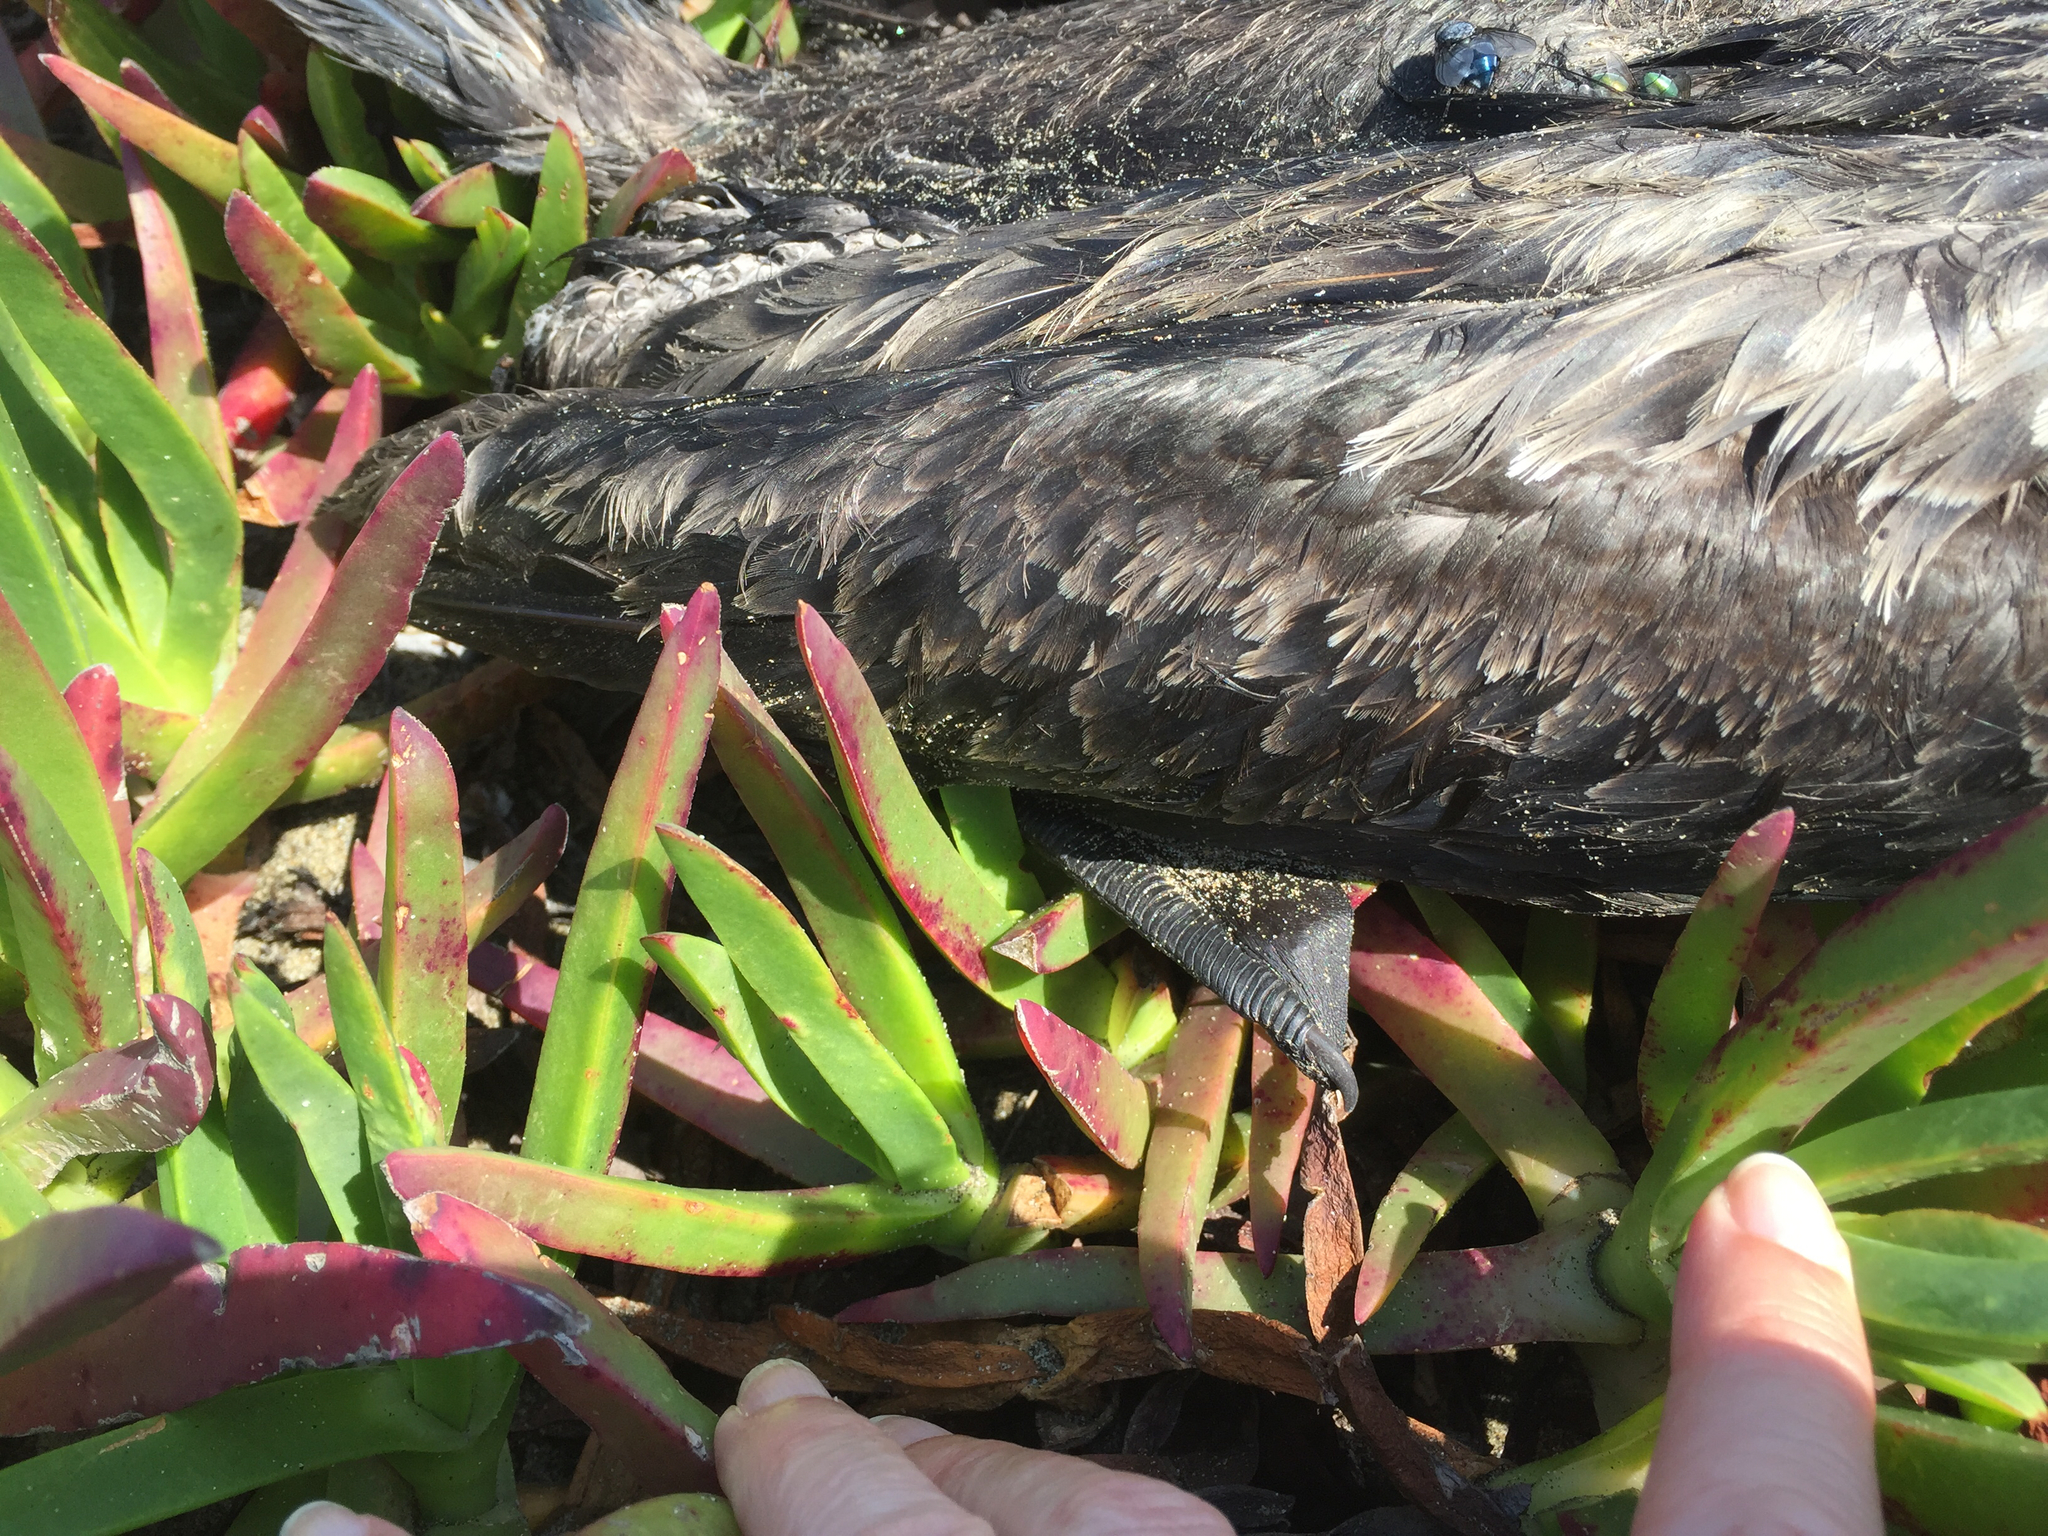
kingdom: Animalia
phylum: Chordata
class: Aves
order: Suliformes
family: Phalacrocoracidae
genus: Phalacrocorax
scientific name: Phalacrocorax auritus
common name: Double-crested cormorant
